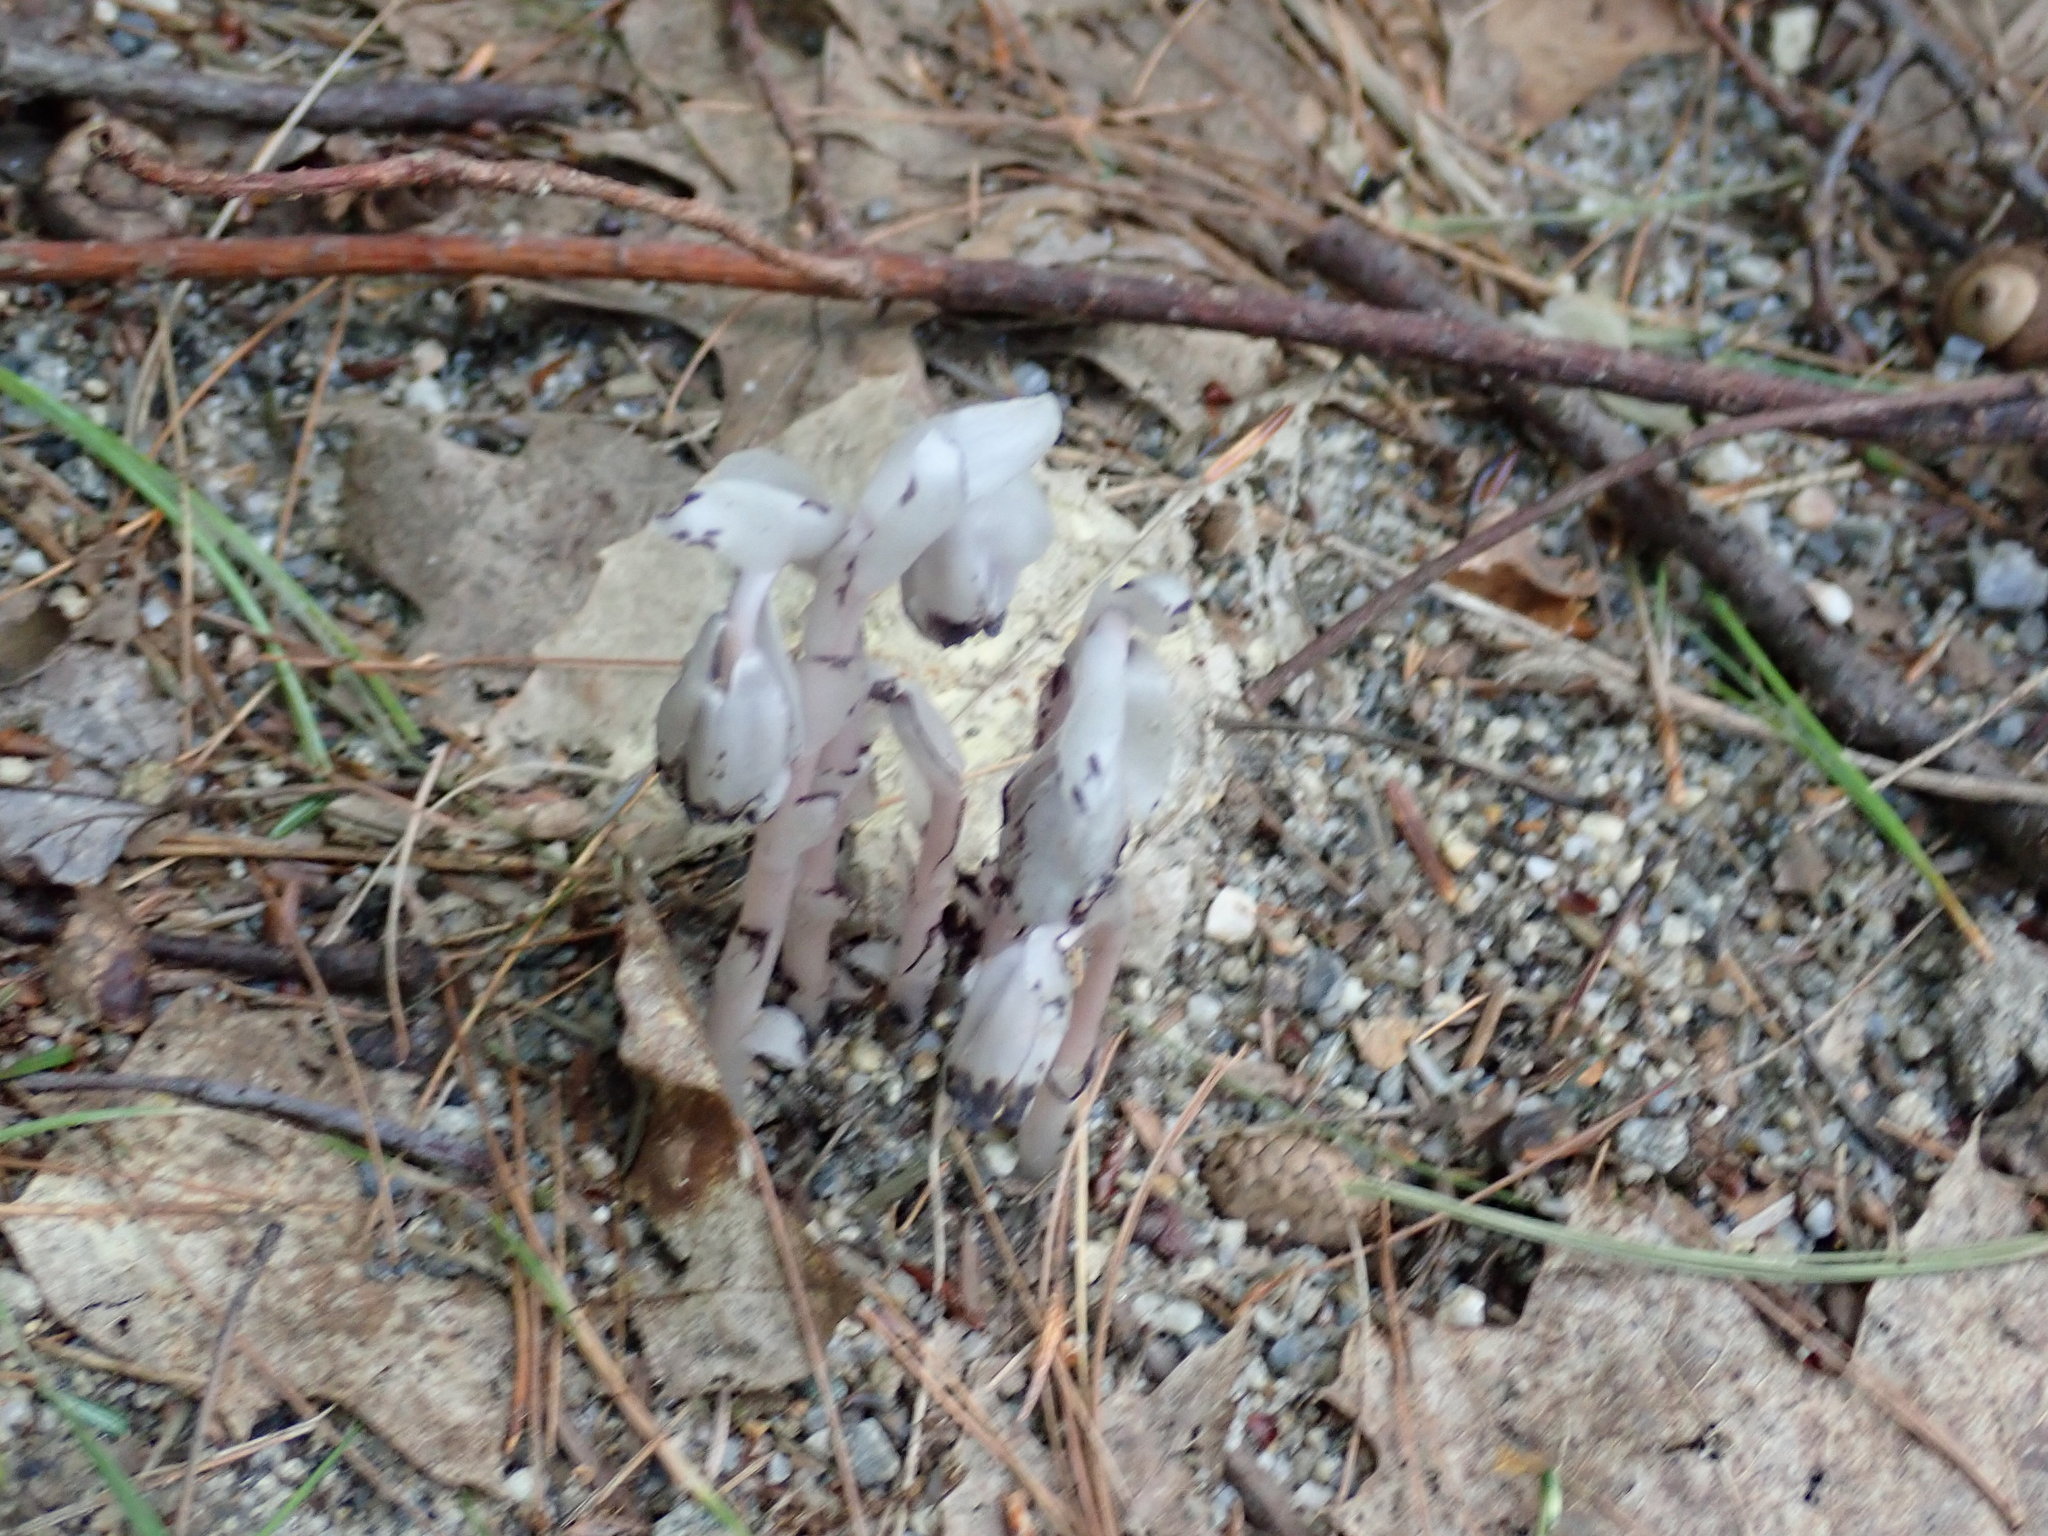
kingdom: Plantae
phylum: Tracheophyta
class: Magnoliopsida
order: Ericales
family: Ericaceae
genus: Monotropa
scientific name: Monotropa uniflora
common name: Convulsion root
